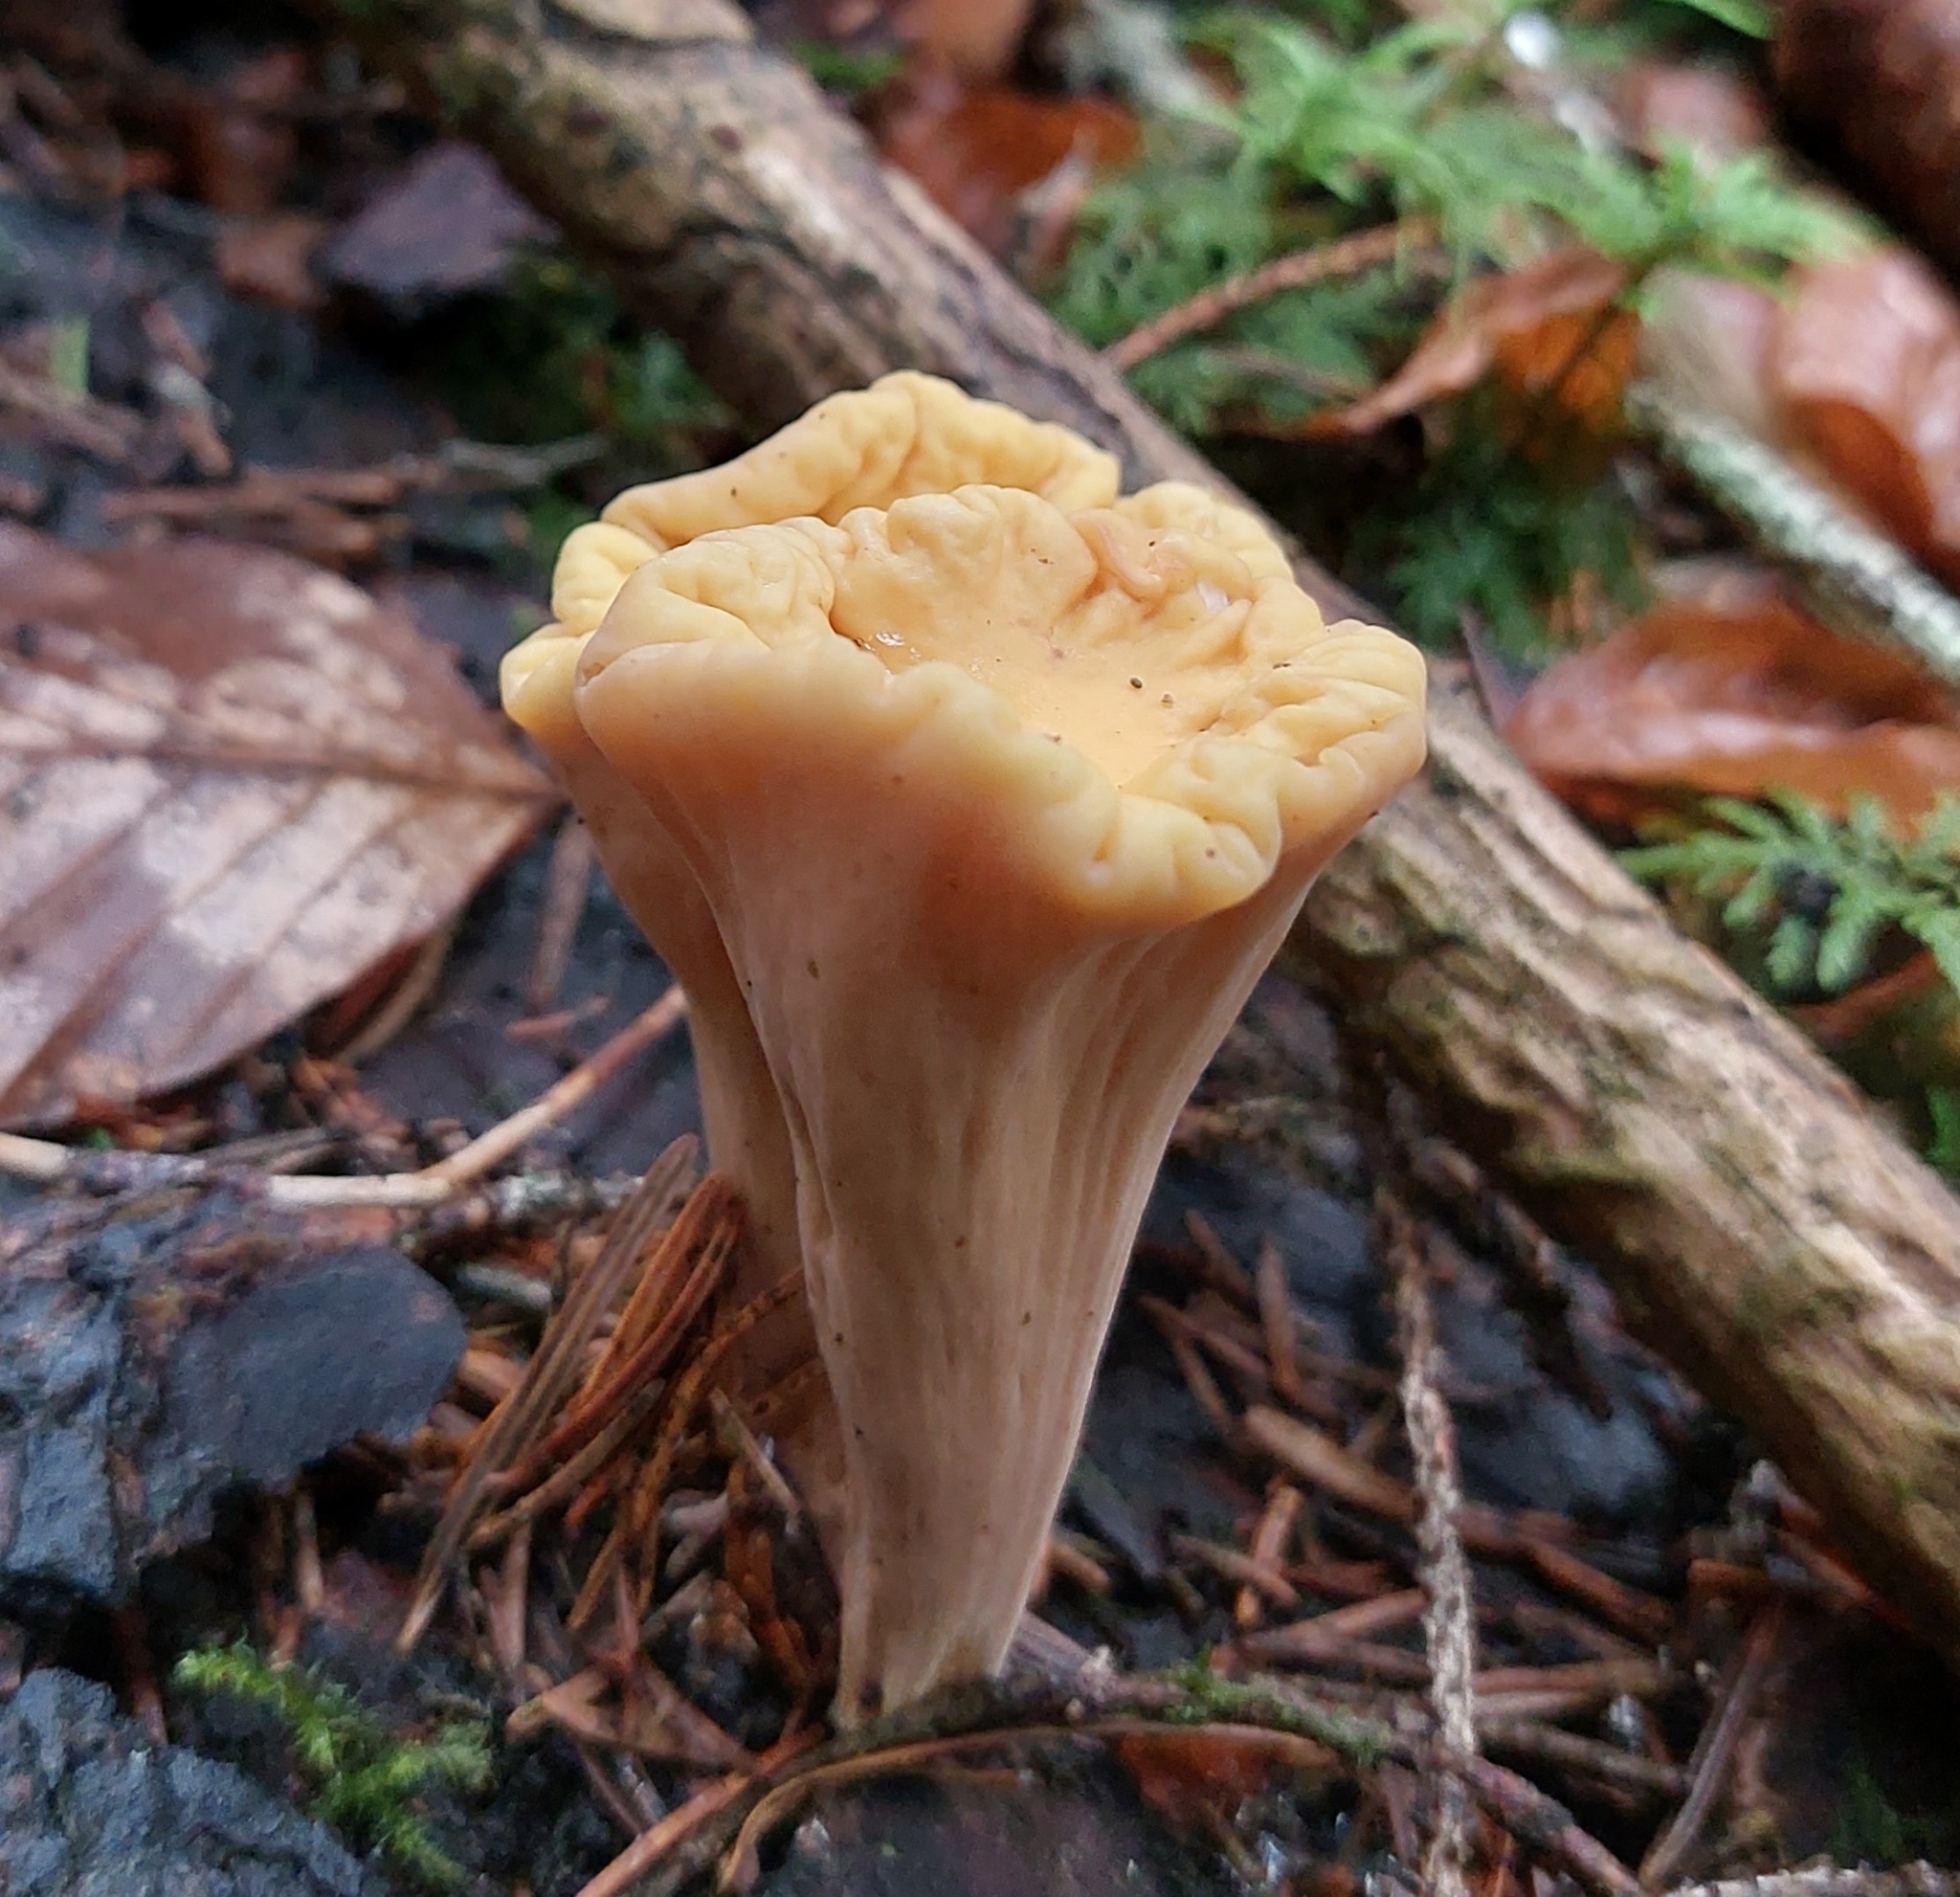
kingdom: Fungi
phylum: Basidiomycota
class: Agaricomycetes
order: Gomphales
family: Clavariadelphaceae
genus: Clavariadelphus
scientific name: Clavariadelphus truncatus
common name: Truncated club
